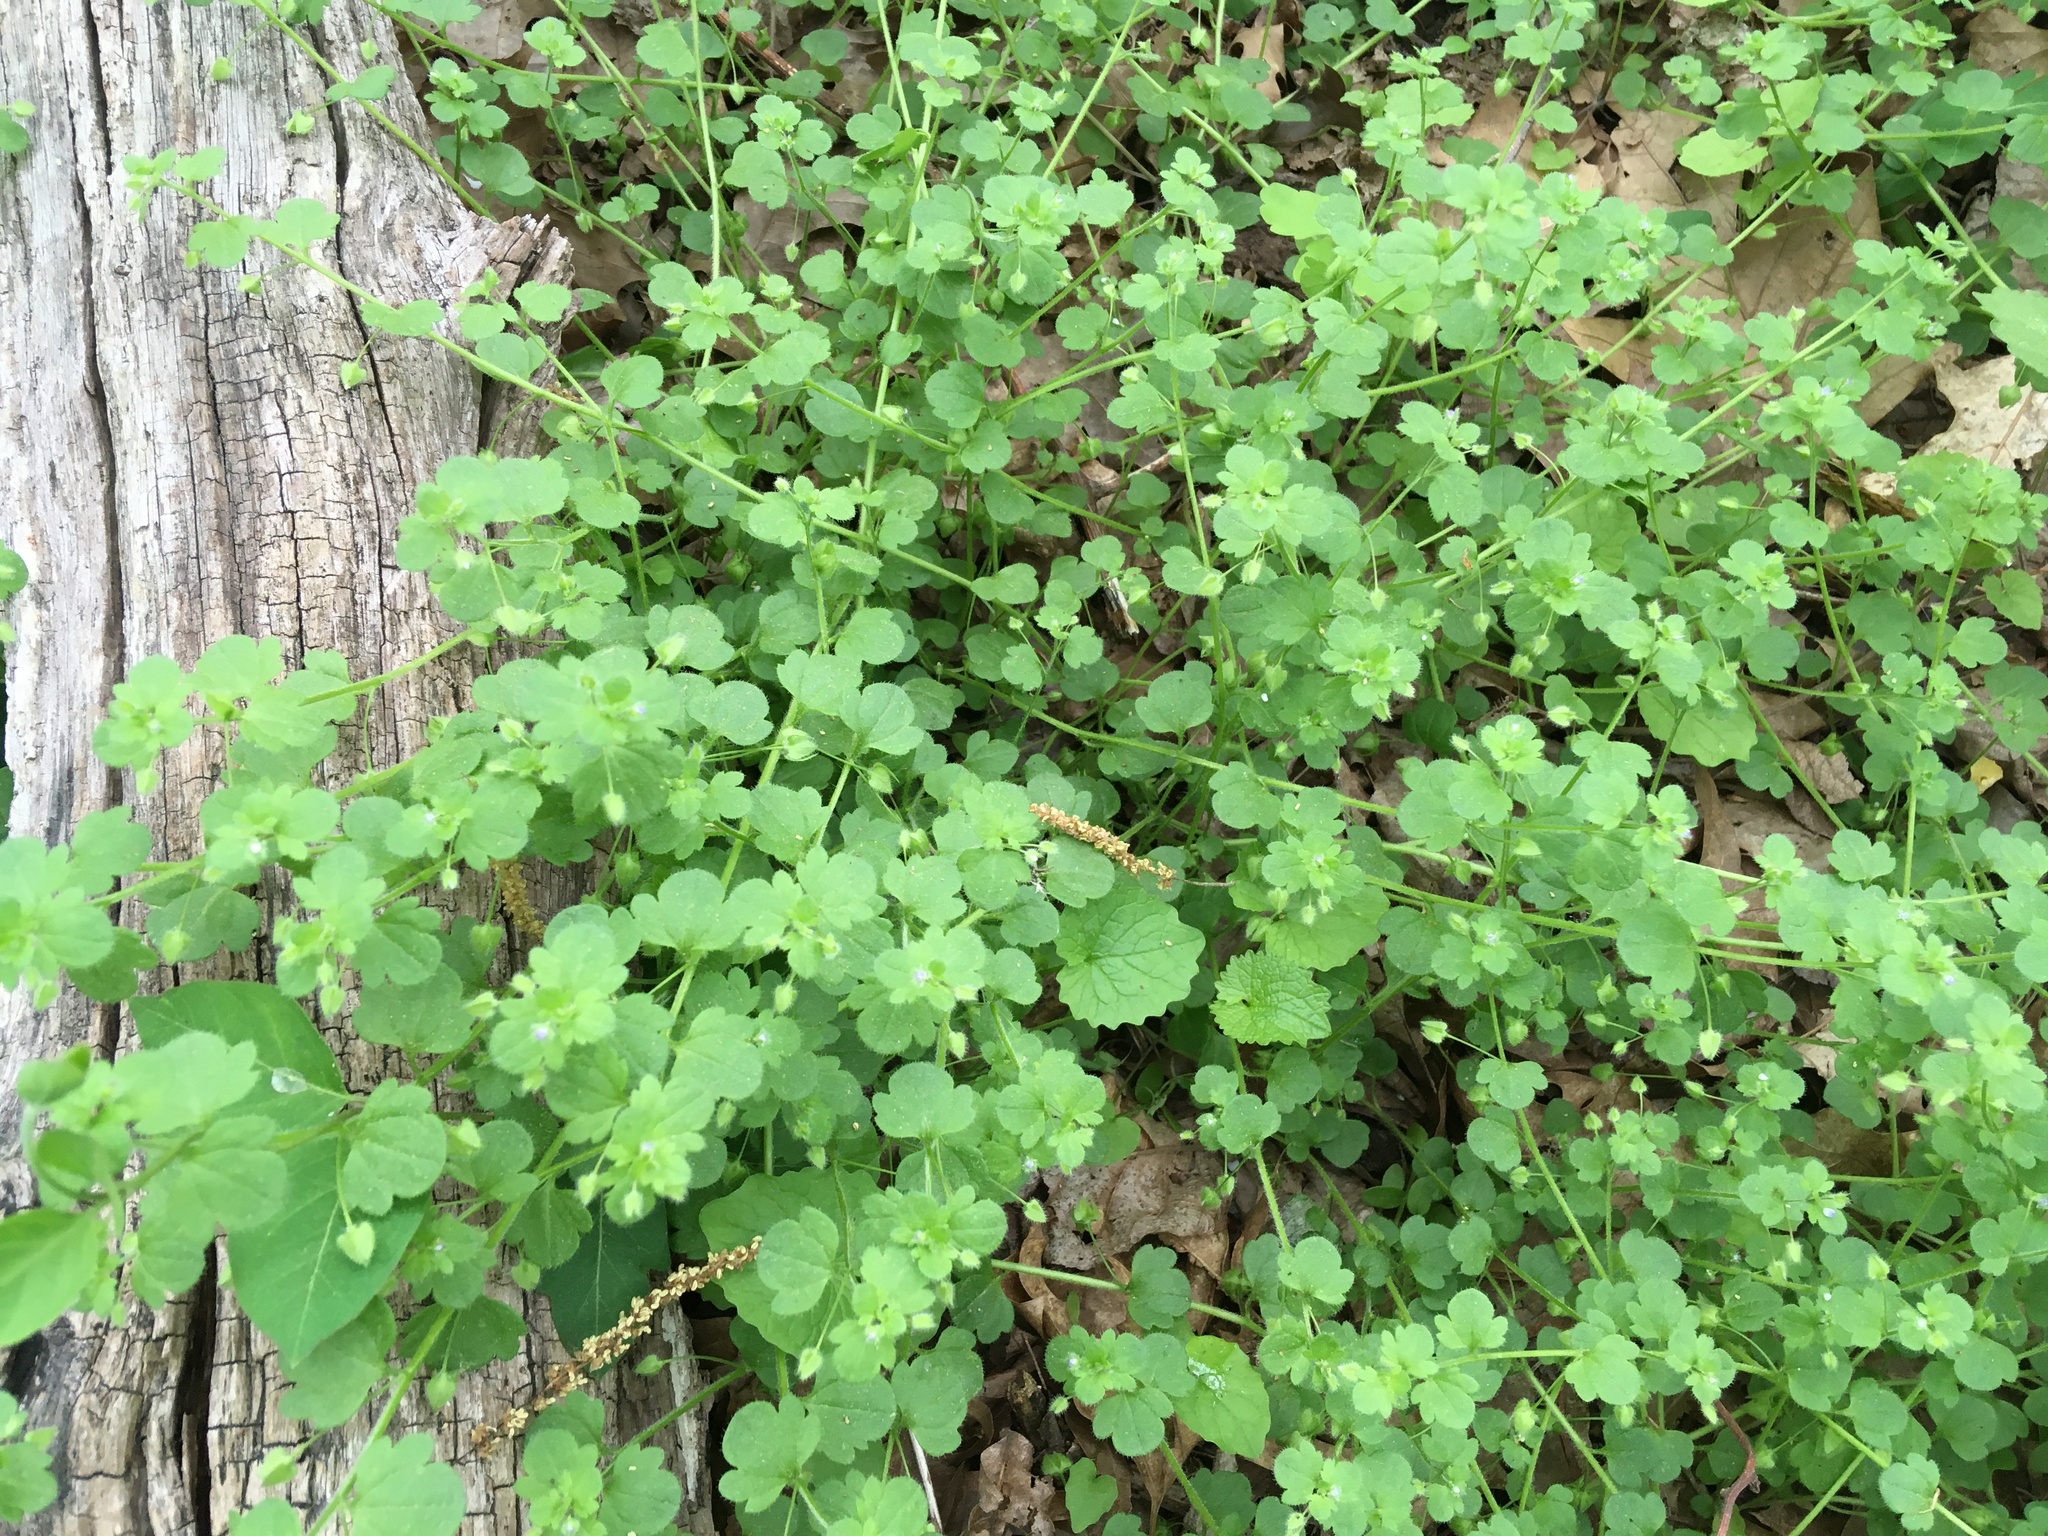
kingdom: Plantae
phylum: Tracheophyta
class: Magnoliopsida
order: Lamiales
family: Plantaginaceae
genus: Veronica
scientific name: Veronica hederifolia
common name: Ivy-leaved speedwell
